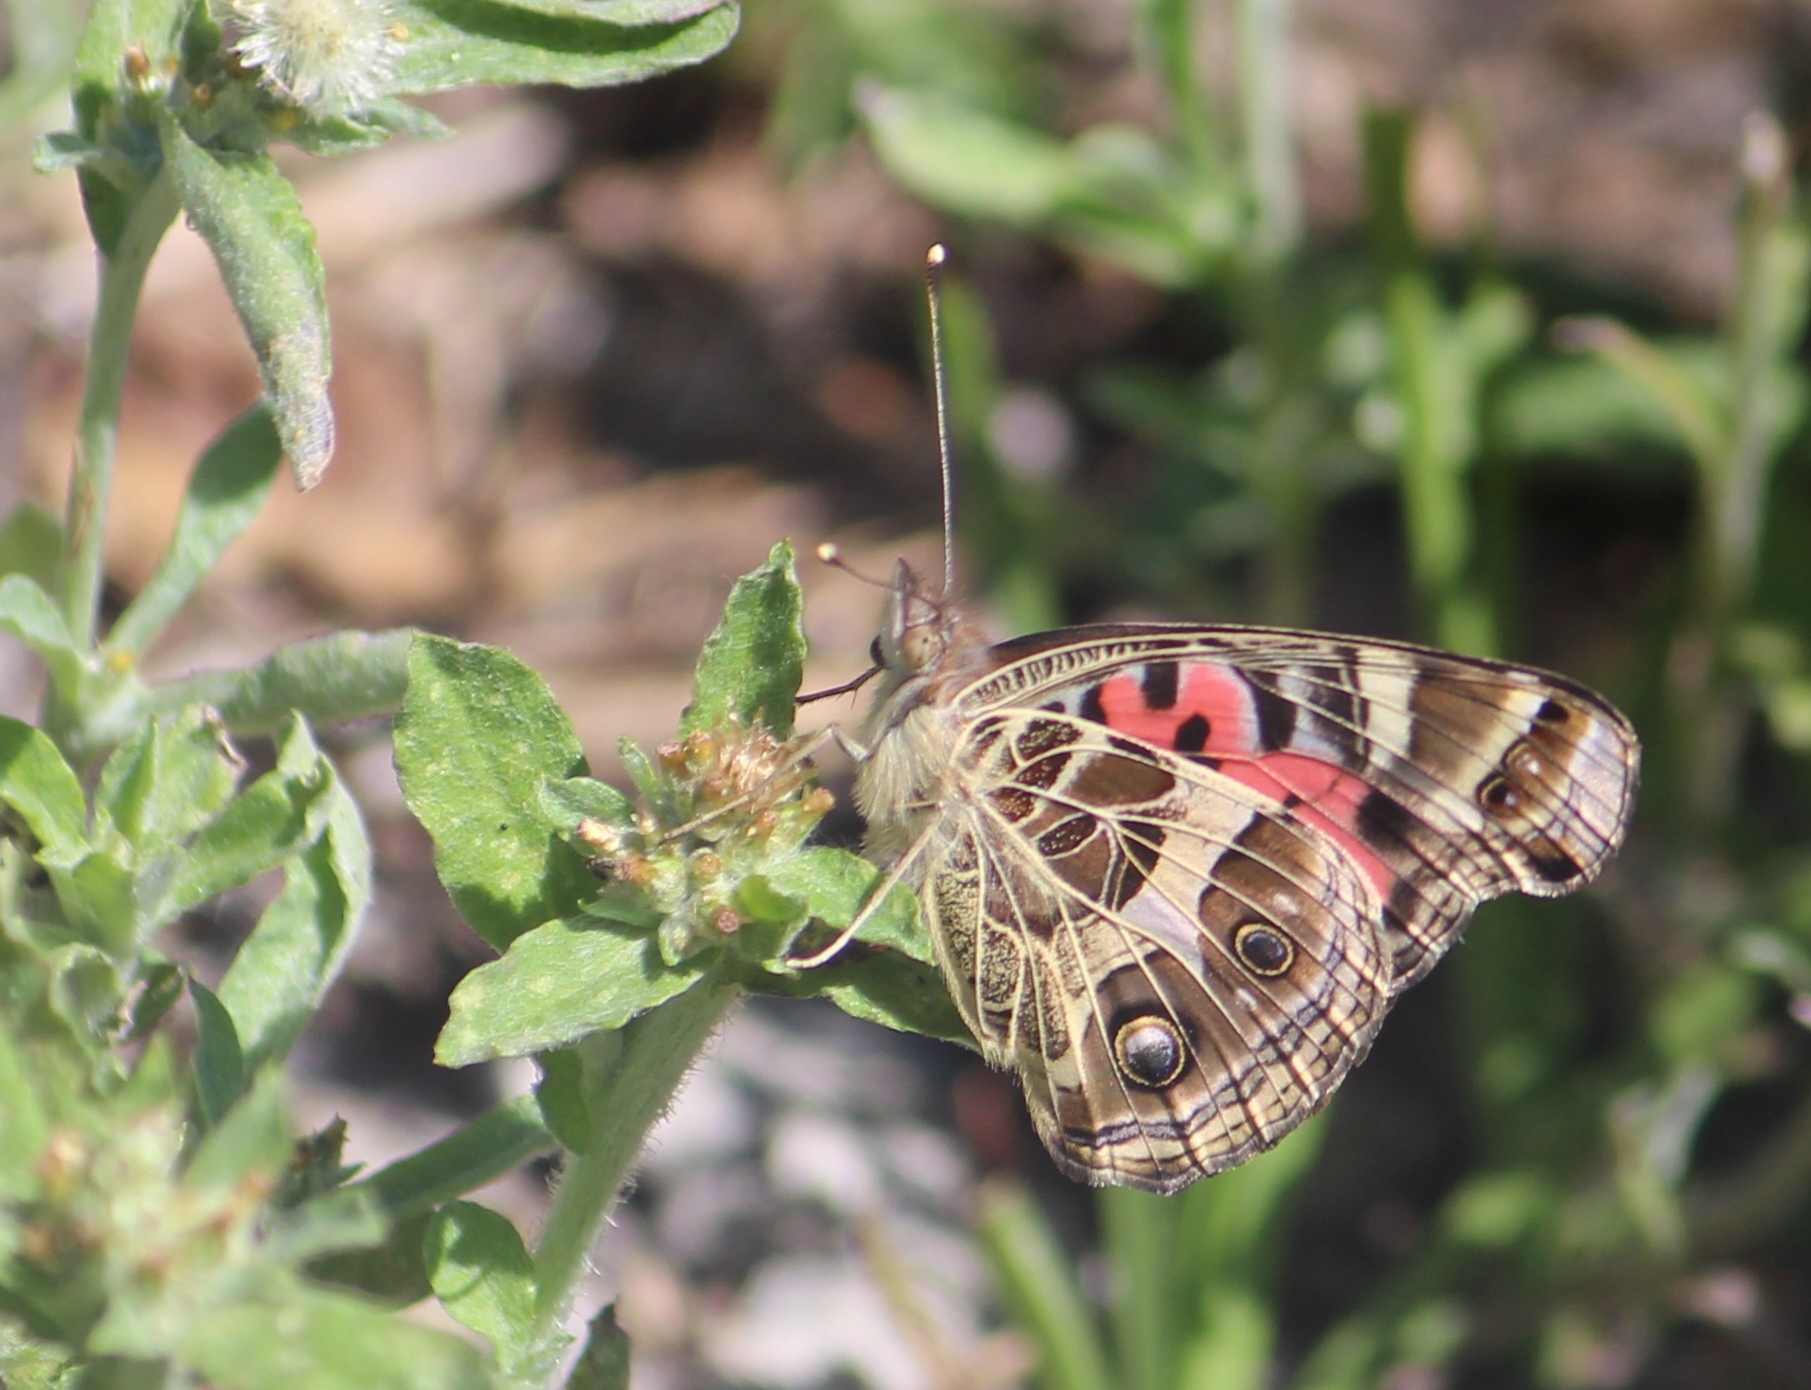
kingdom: Animalia
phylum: Arthropoda
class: Insecta
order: Lepidoptera
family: Nymphalidae
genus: Vanessa
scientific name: Vanessa braziliensis
